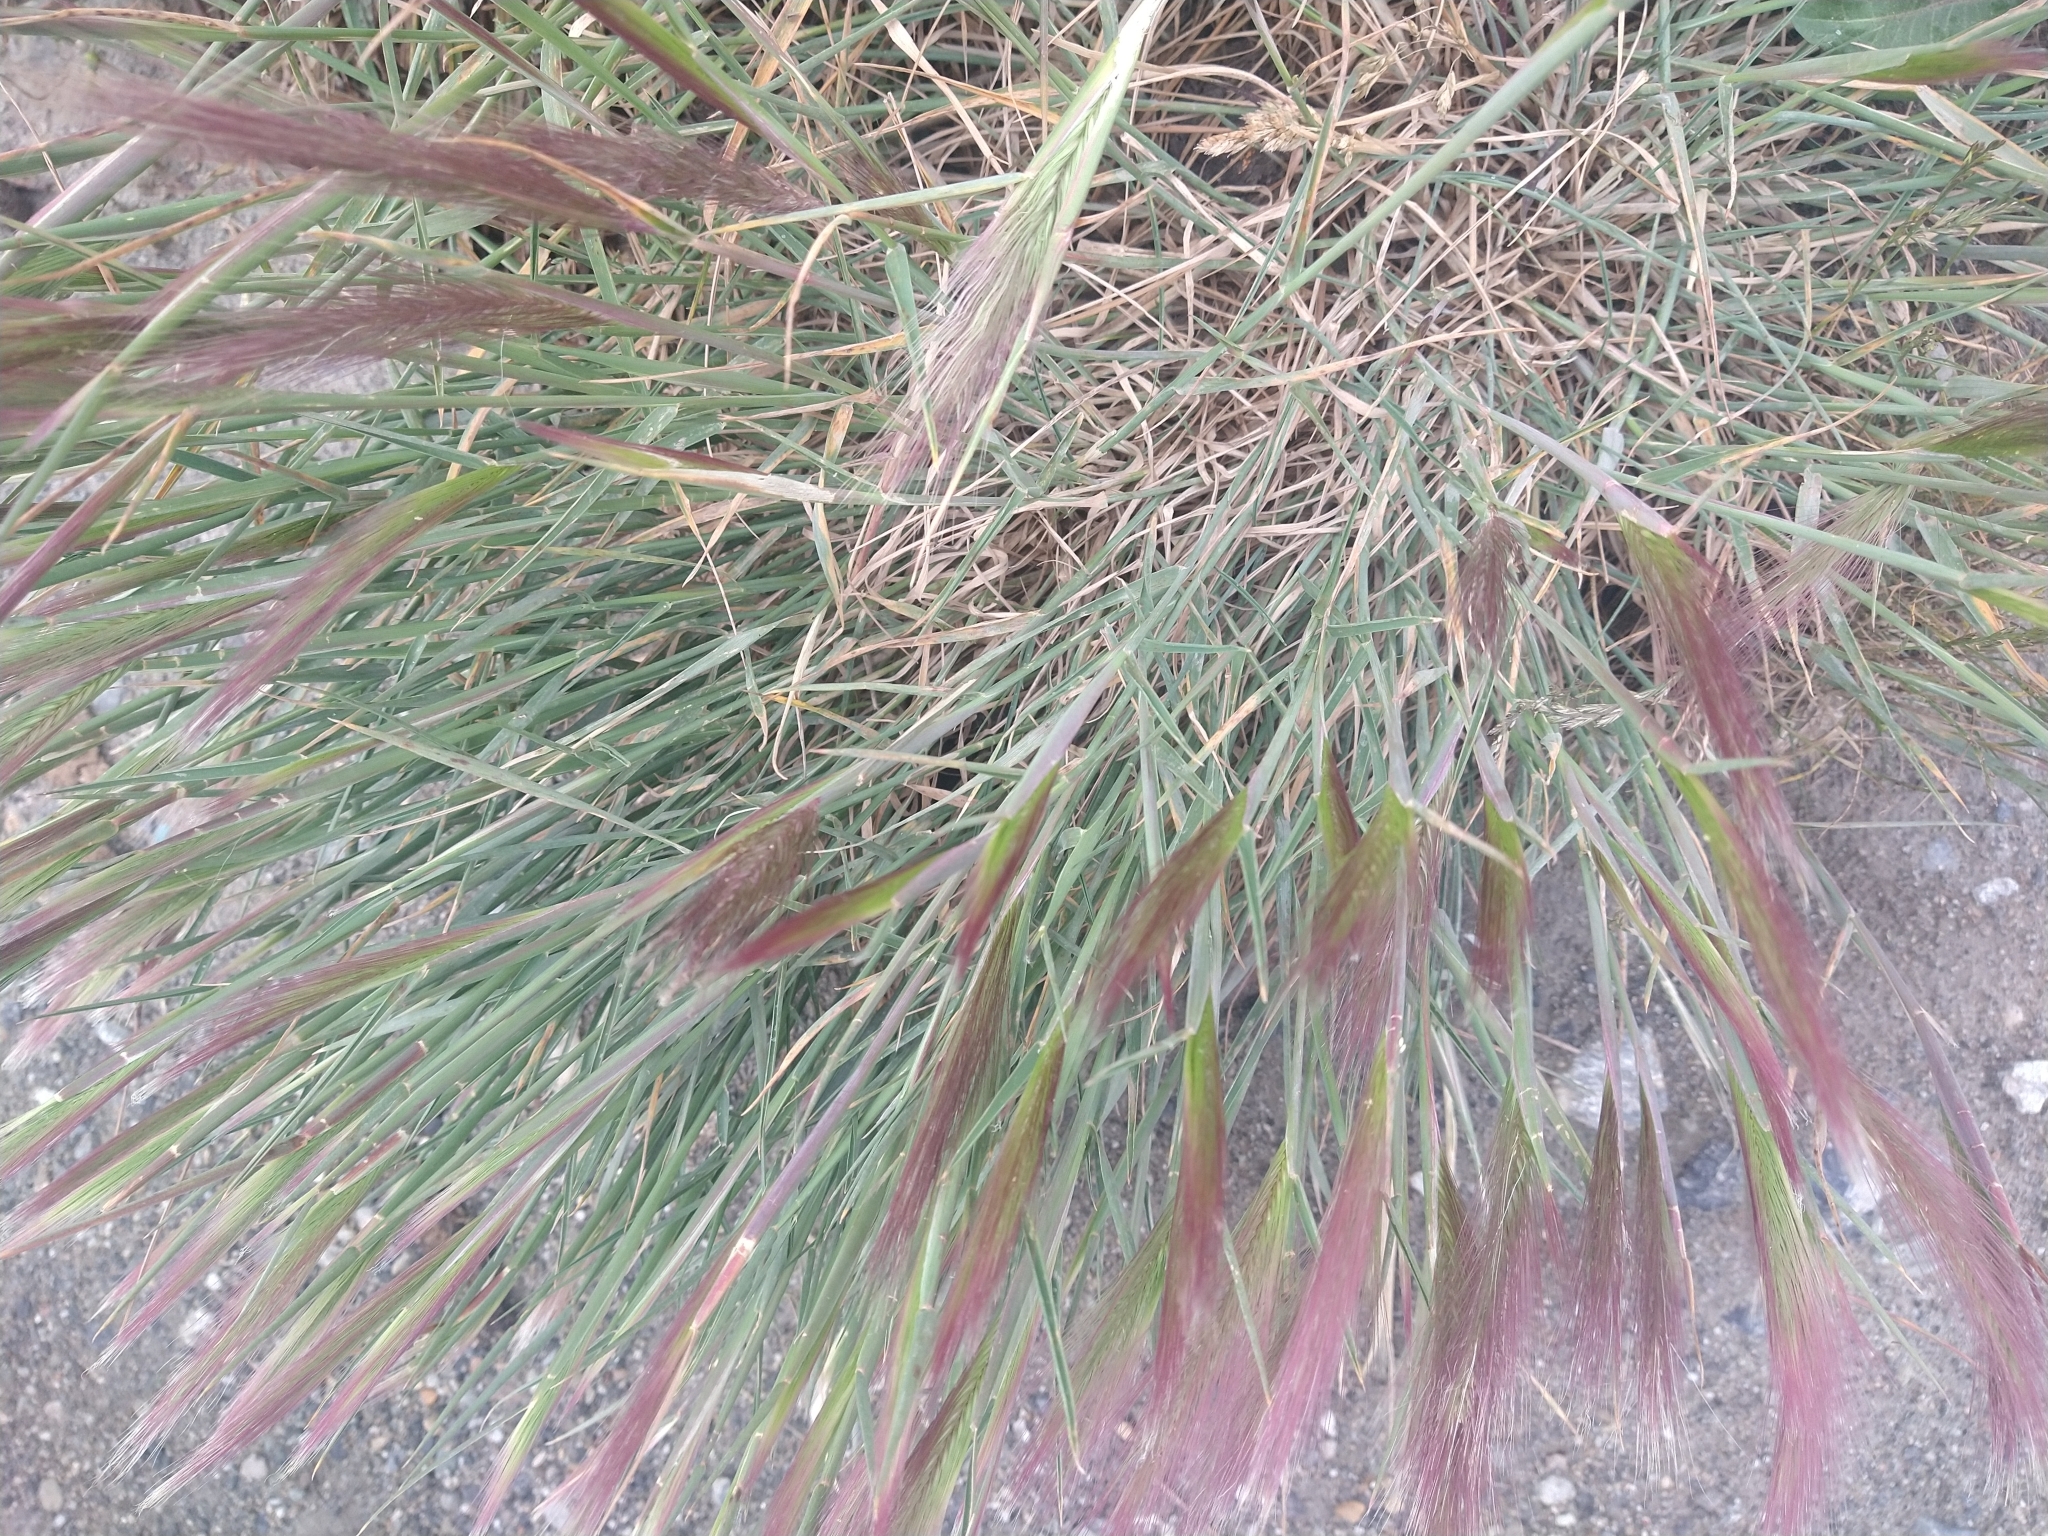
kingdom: Plantae
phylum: Tracheophyta
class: Liliopsida
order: Poales
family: Poaceae
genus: Hordeum
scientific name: Hordeum jubatum
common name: Foxtail barley
